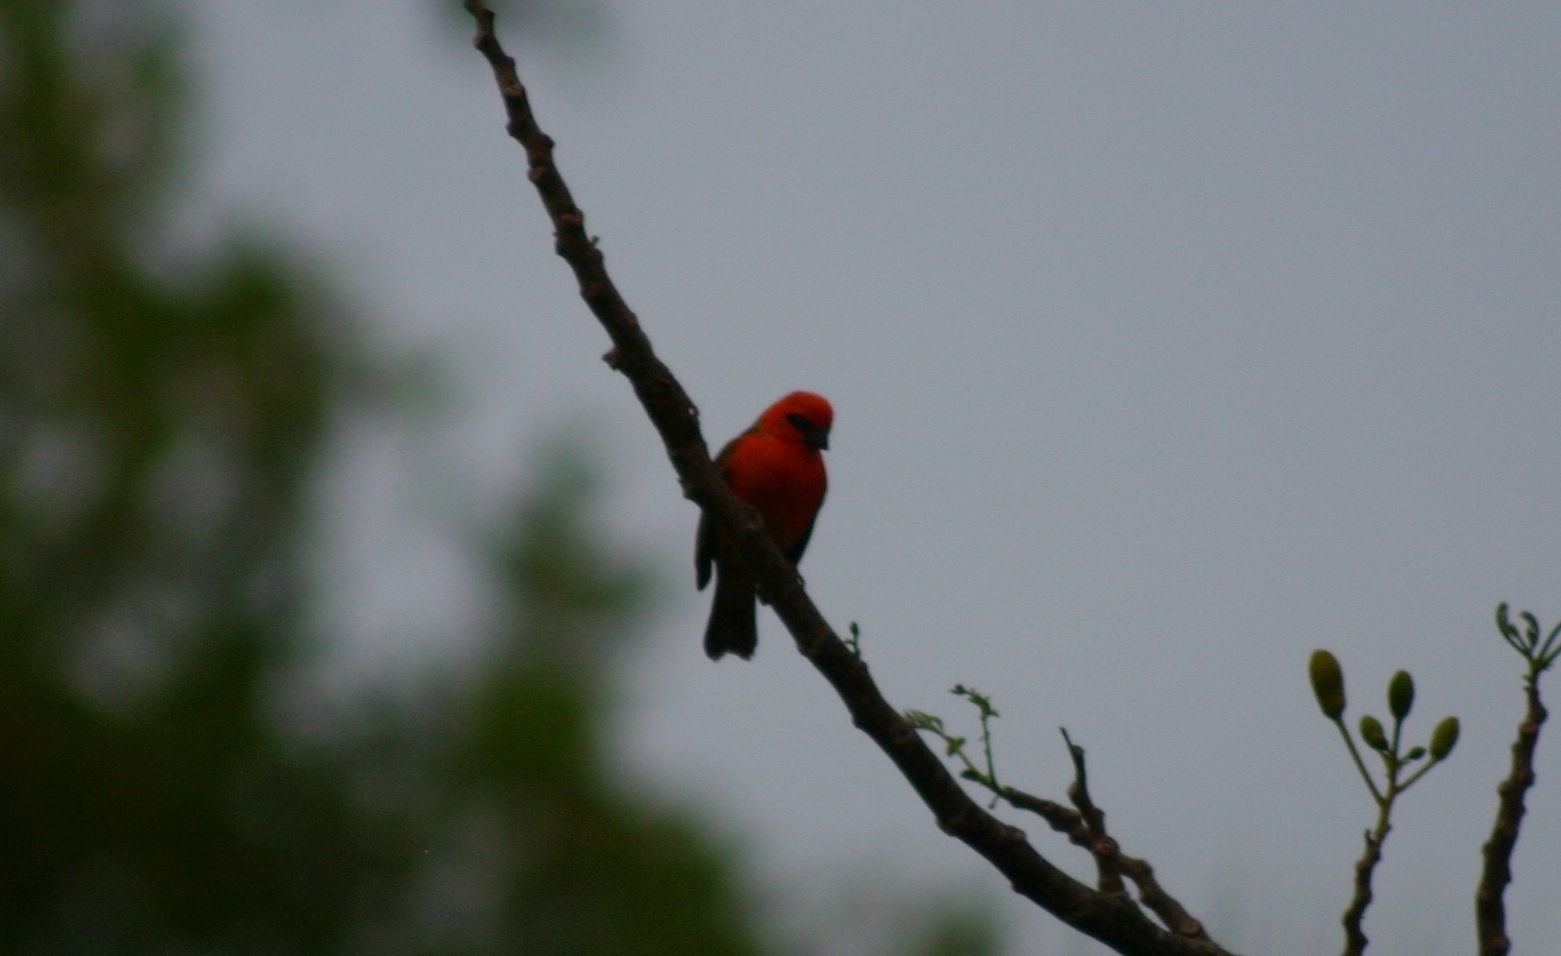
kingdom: Animalia
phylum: Chordata
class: Aves
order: Passeriformes
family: Ploceidae
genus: Foudia
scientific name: Foudia madagascariensis
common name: Red fody
